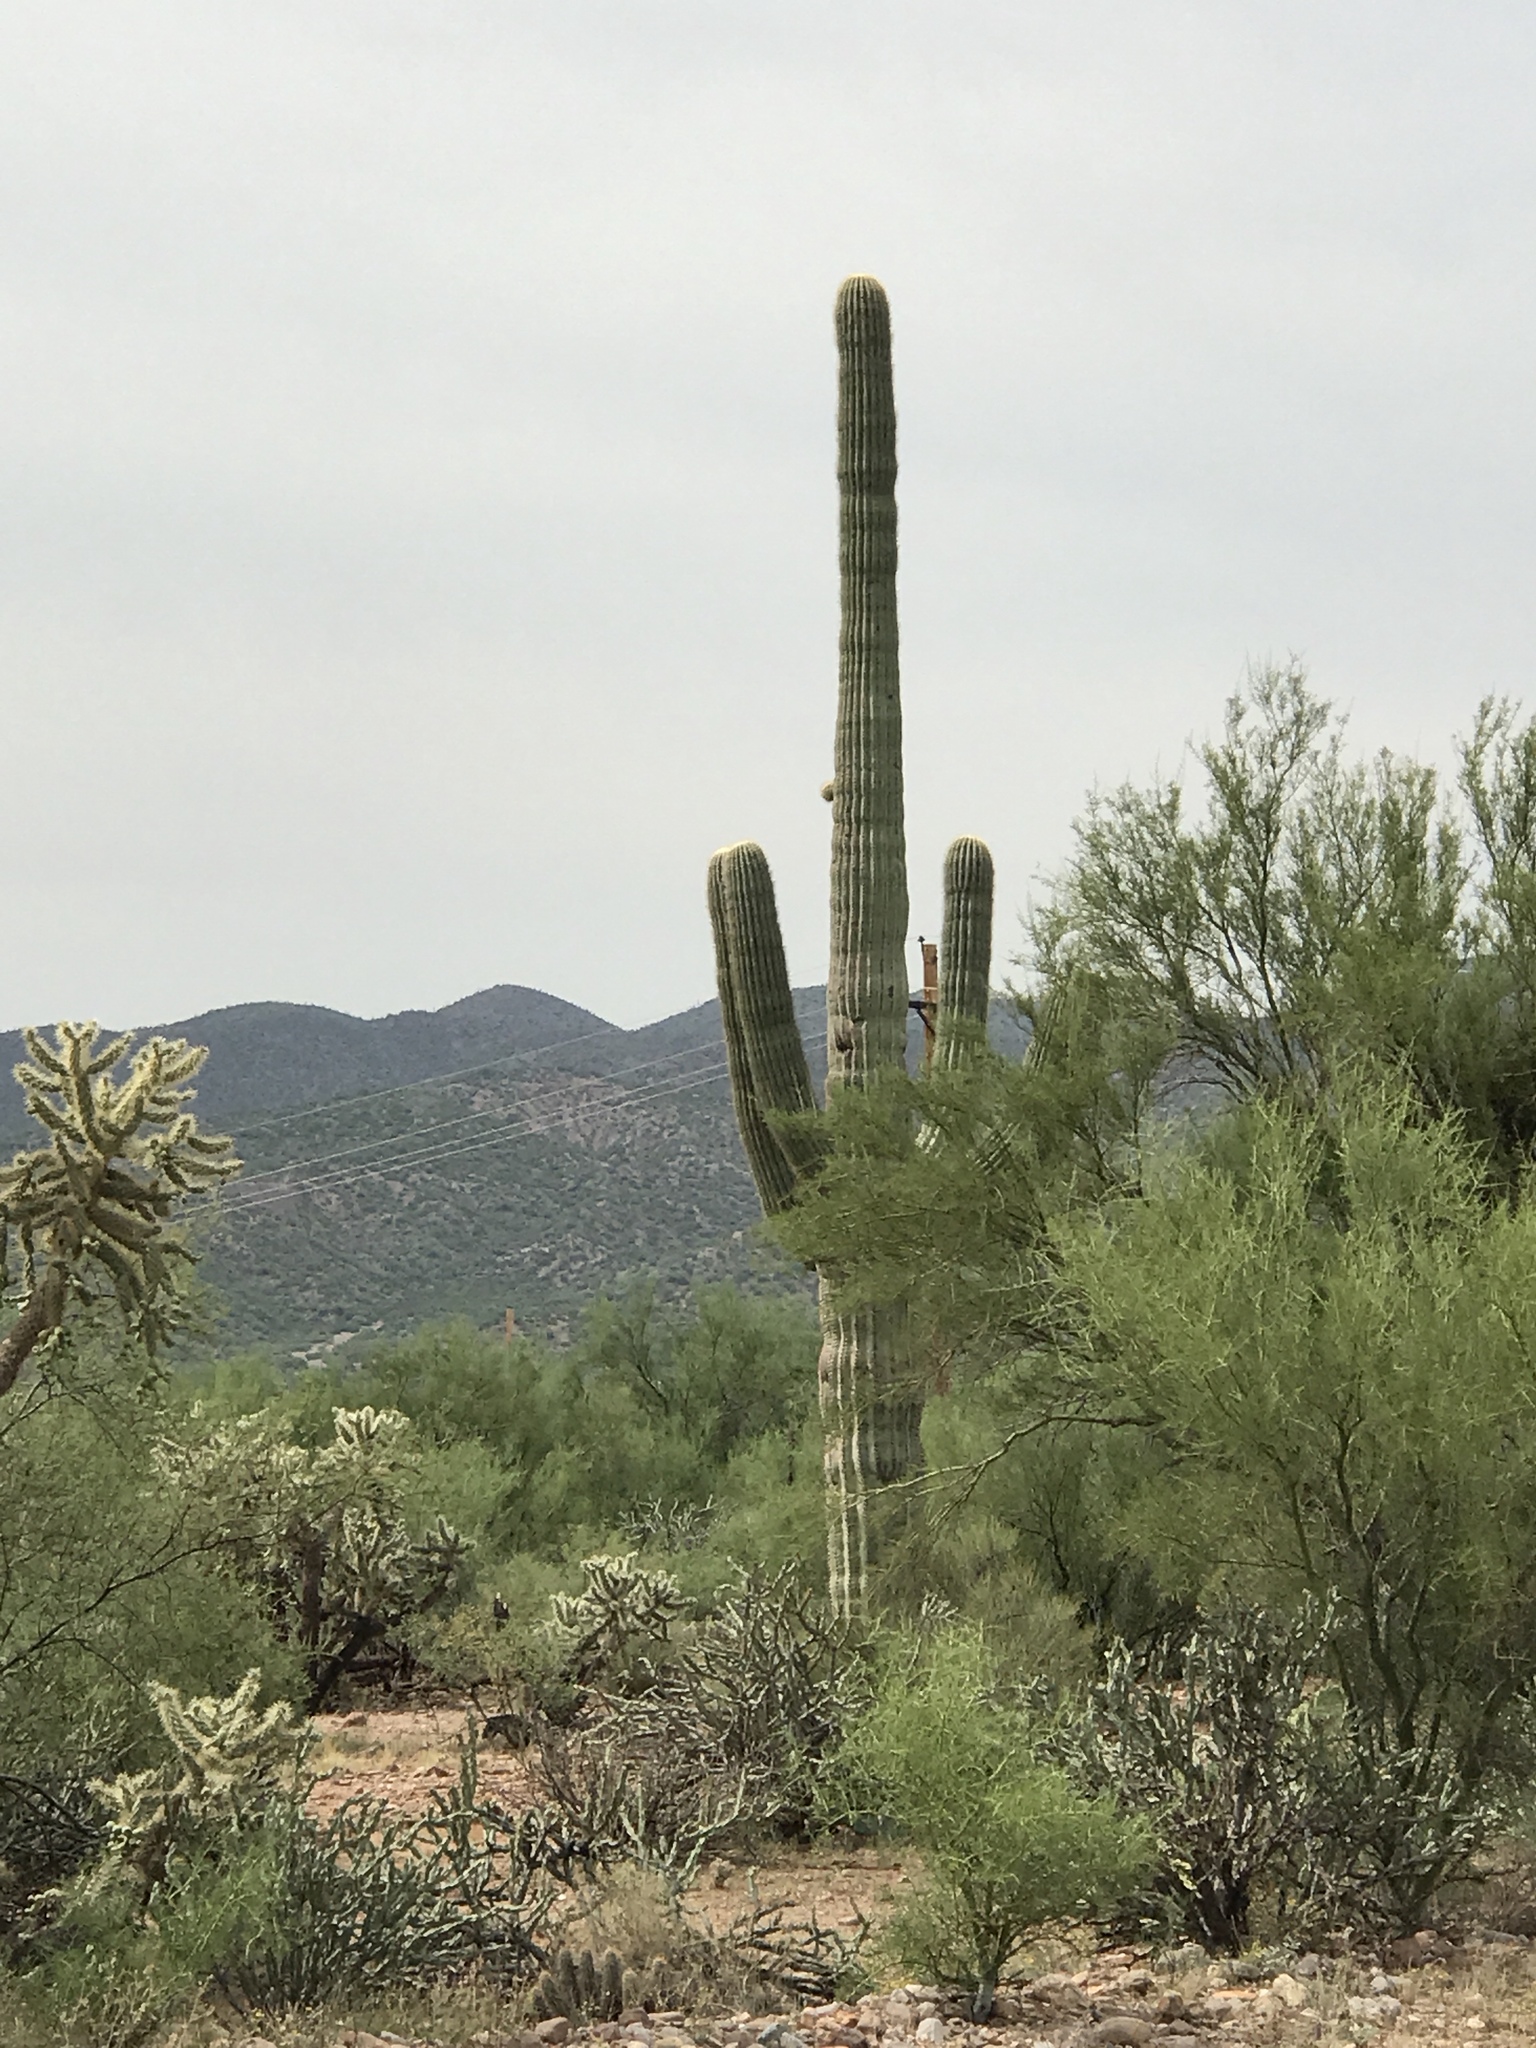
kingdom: Plantae
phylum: Tracheophyta
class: Magnoliopsida
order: Caryophyllales
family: Cactaceae
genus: Carnegiea
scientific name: Carnegiea gigantea
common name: Saguaro
